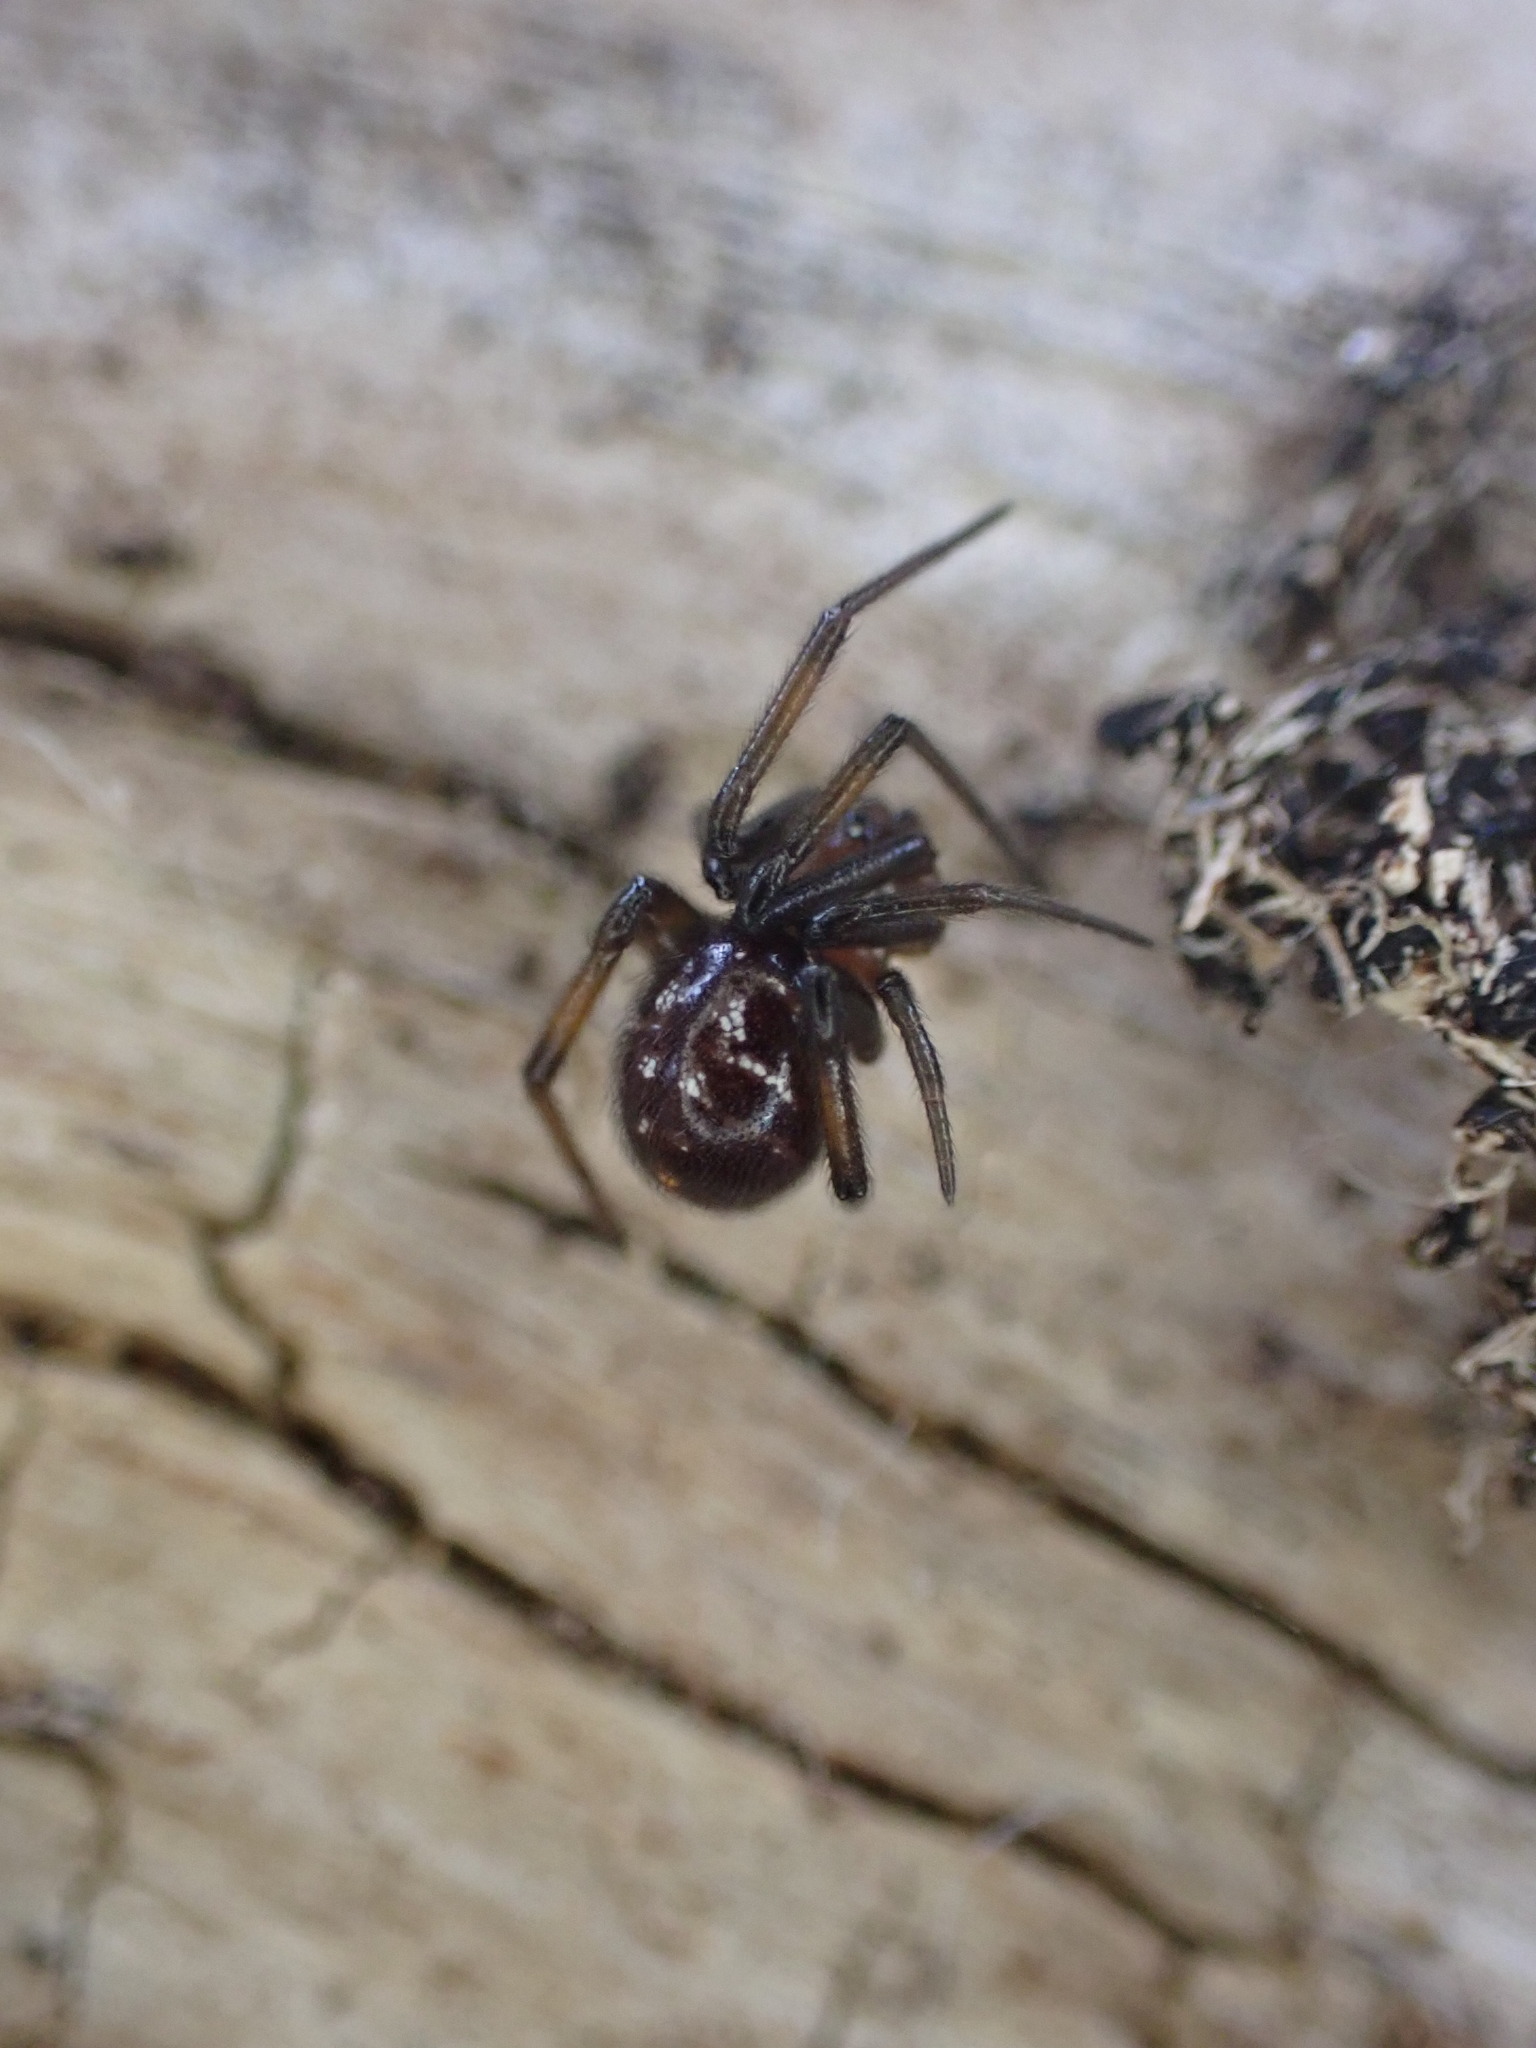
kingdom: Animalia
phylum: Arthropoda
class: Arachnida
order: Araneae
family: Theridiidae
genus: Steatoda
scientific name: Steatoda capensis
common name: Cobweb weaver
